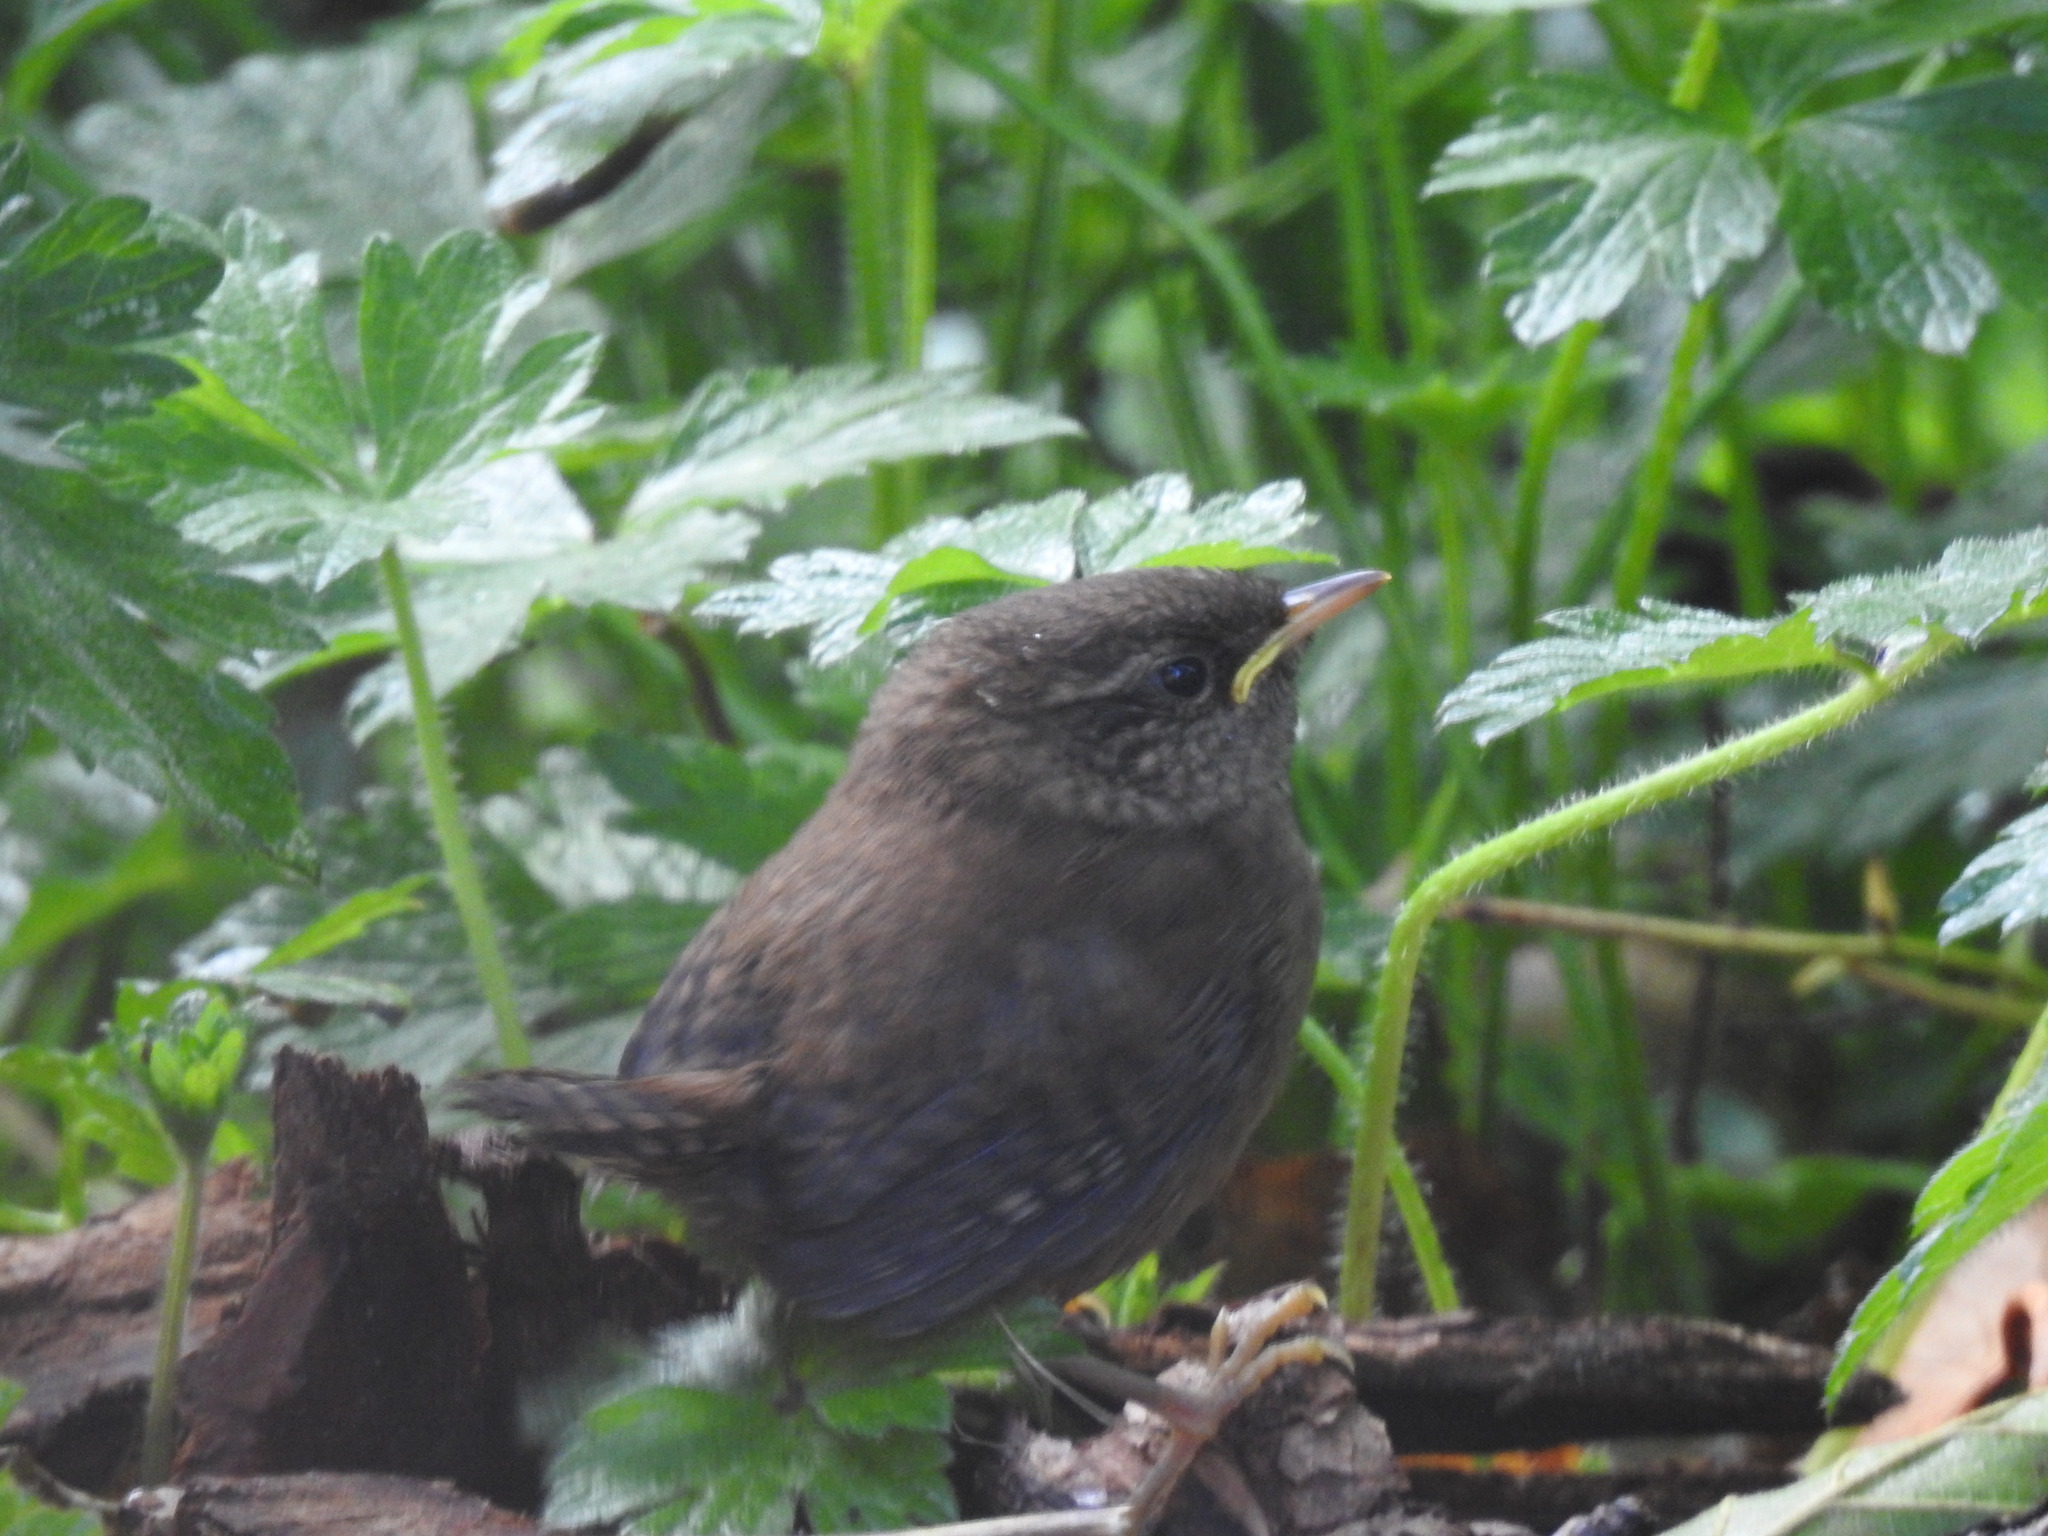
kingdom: Animalia
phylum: Chordata
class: Aves
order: Passeriformes
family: Troglodytidae
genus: Troglodytes
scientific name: Troglodytes troglodytes
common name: Eurasian wren
